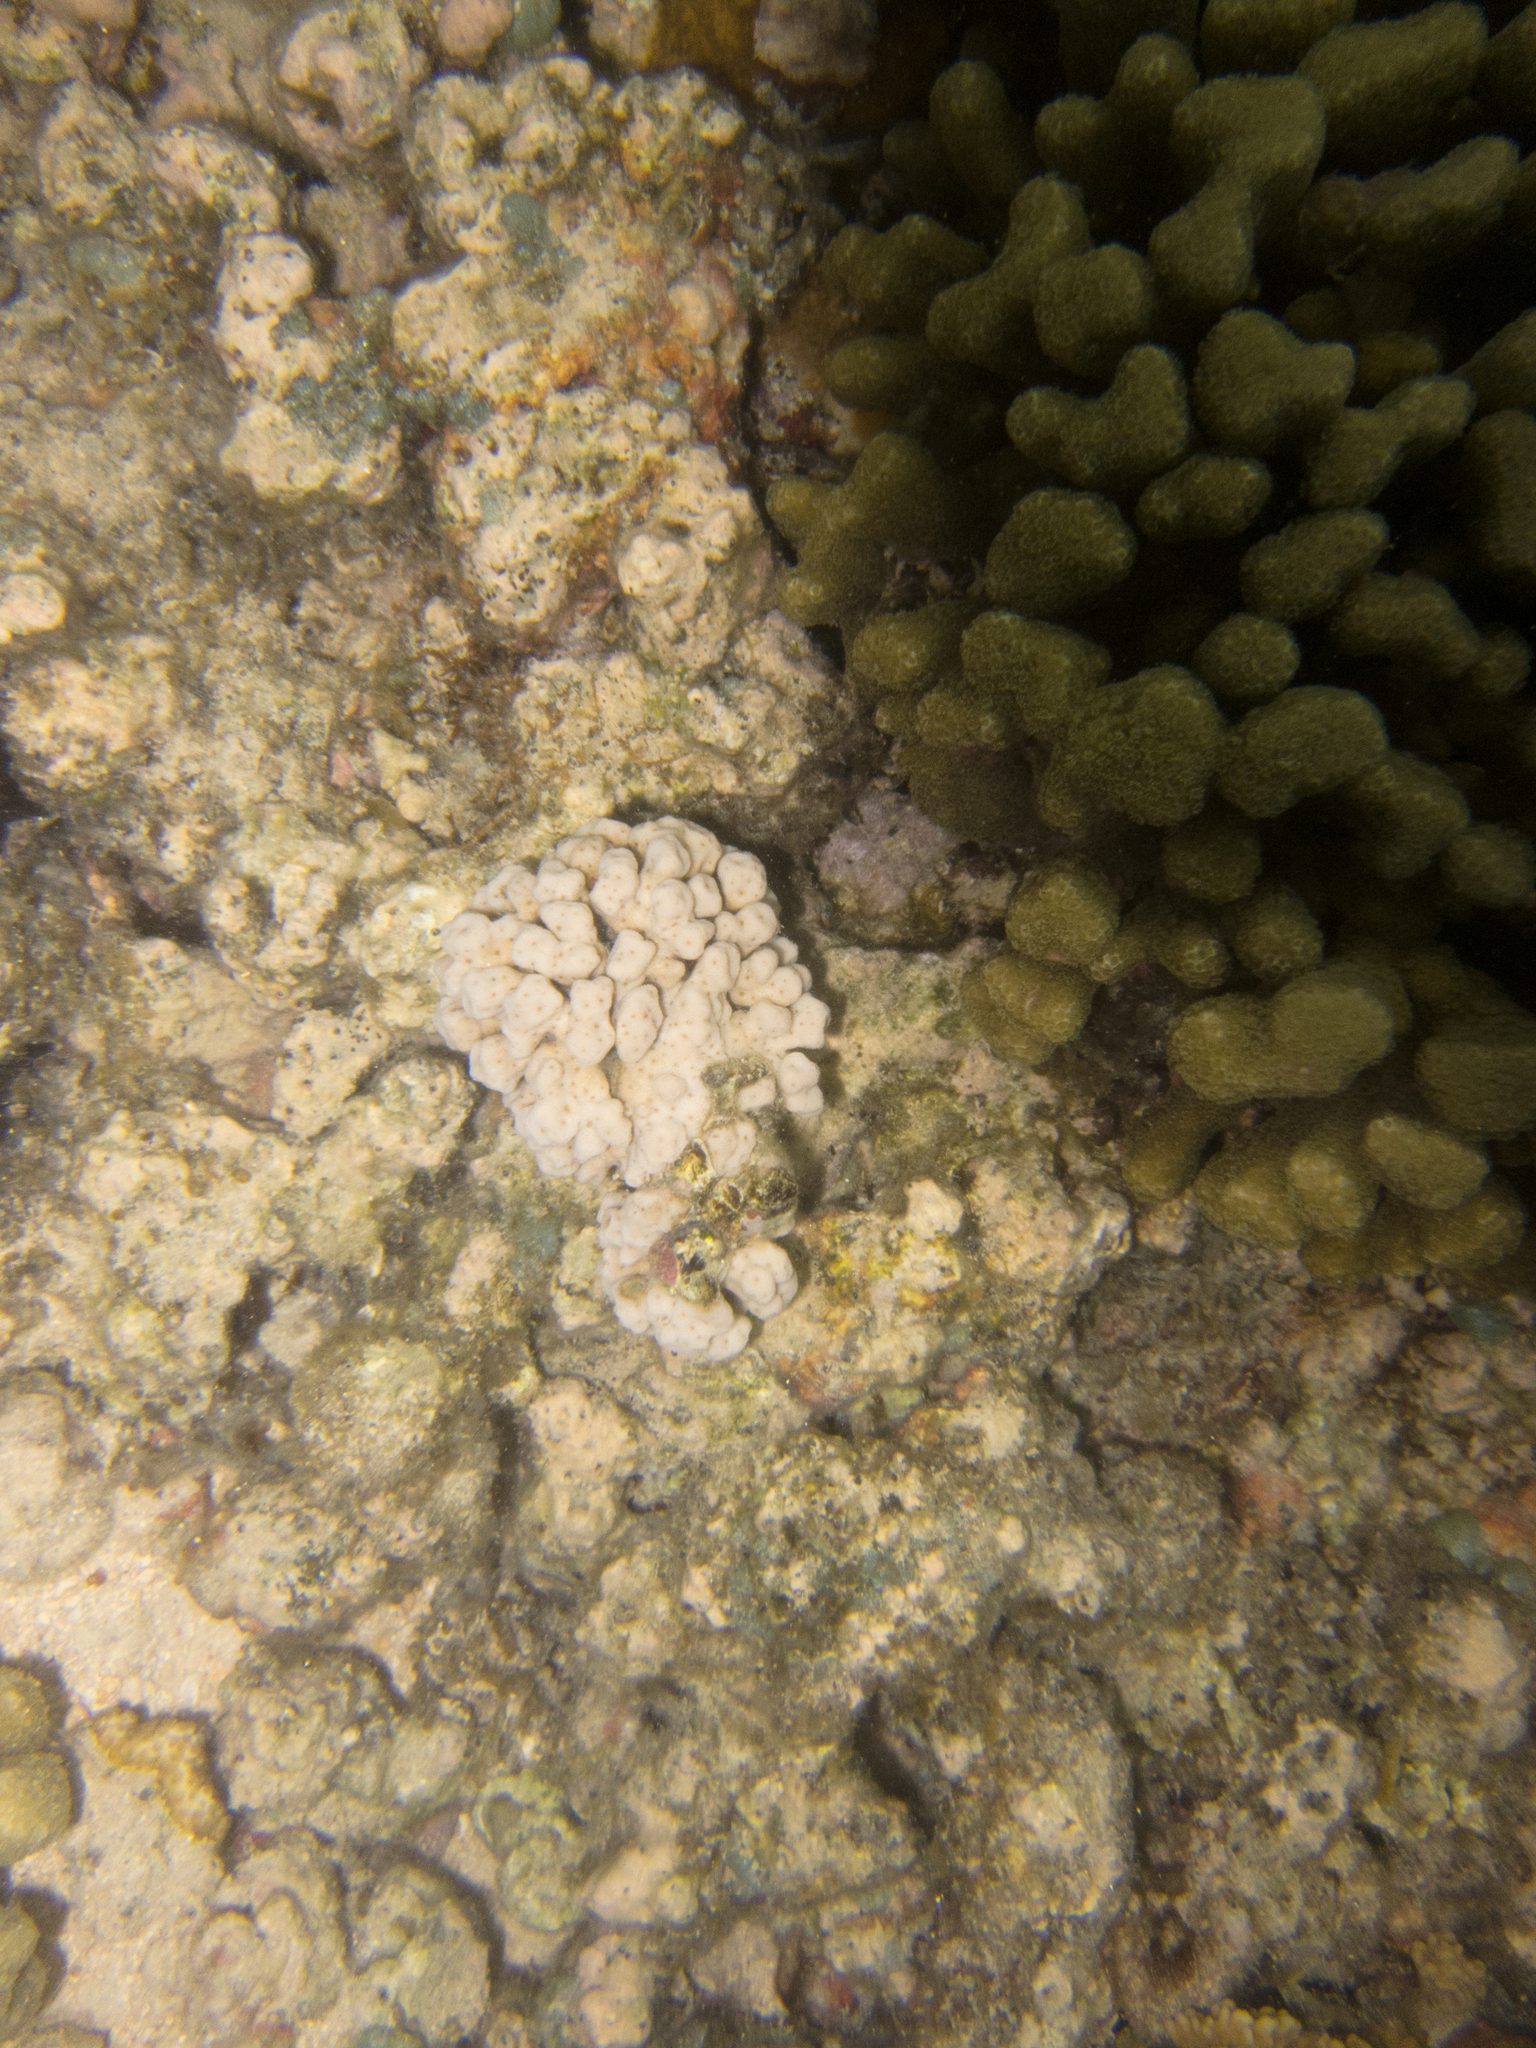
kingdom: Animalia
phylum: Cnidaria
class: Anthozoa
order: Scleractinia
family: Psammocoridae
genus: Psammocora
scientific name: Psammocora stellata
